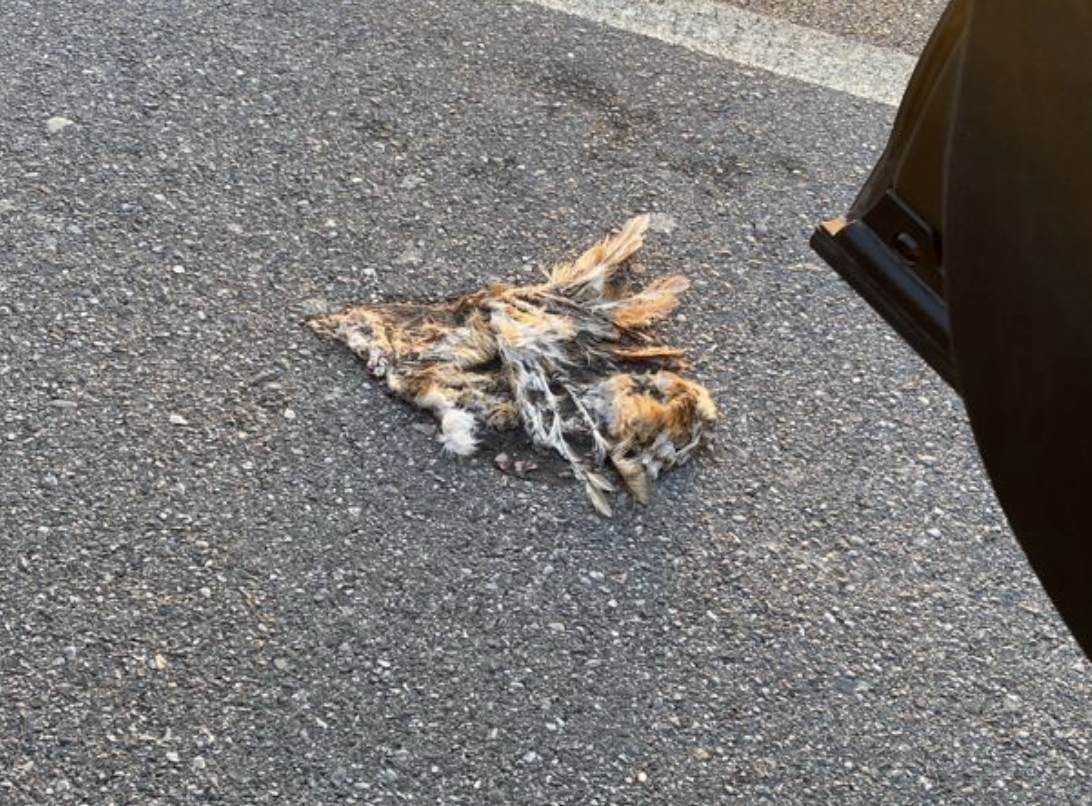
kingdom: Animalia
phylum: Chordata
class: Aves
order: Strigiformes
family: Tytonidae
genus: Tyto
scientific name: Tyto alba
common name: Barn owl
